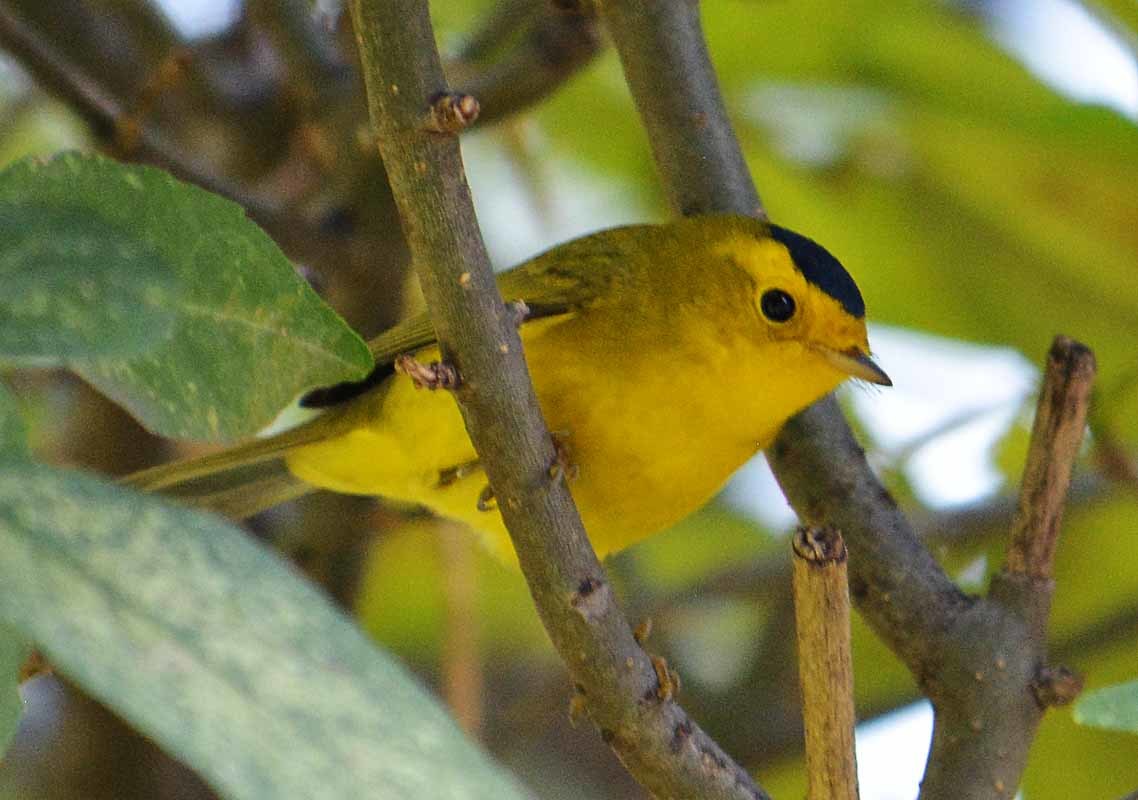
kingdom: Animalia
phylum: Chordata
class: Aves
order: Passeriformes
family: Parulidae
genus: Cardellina
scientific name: Cardellina pusilla
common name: Wilson's warbler
